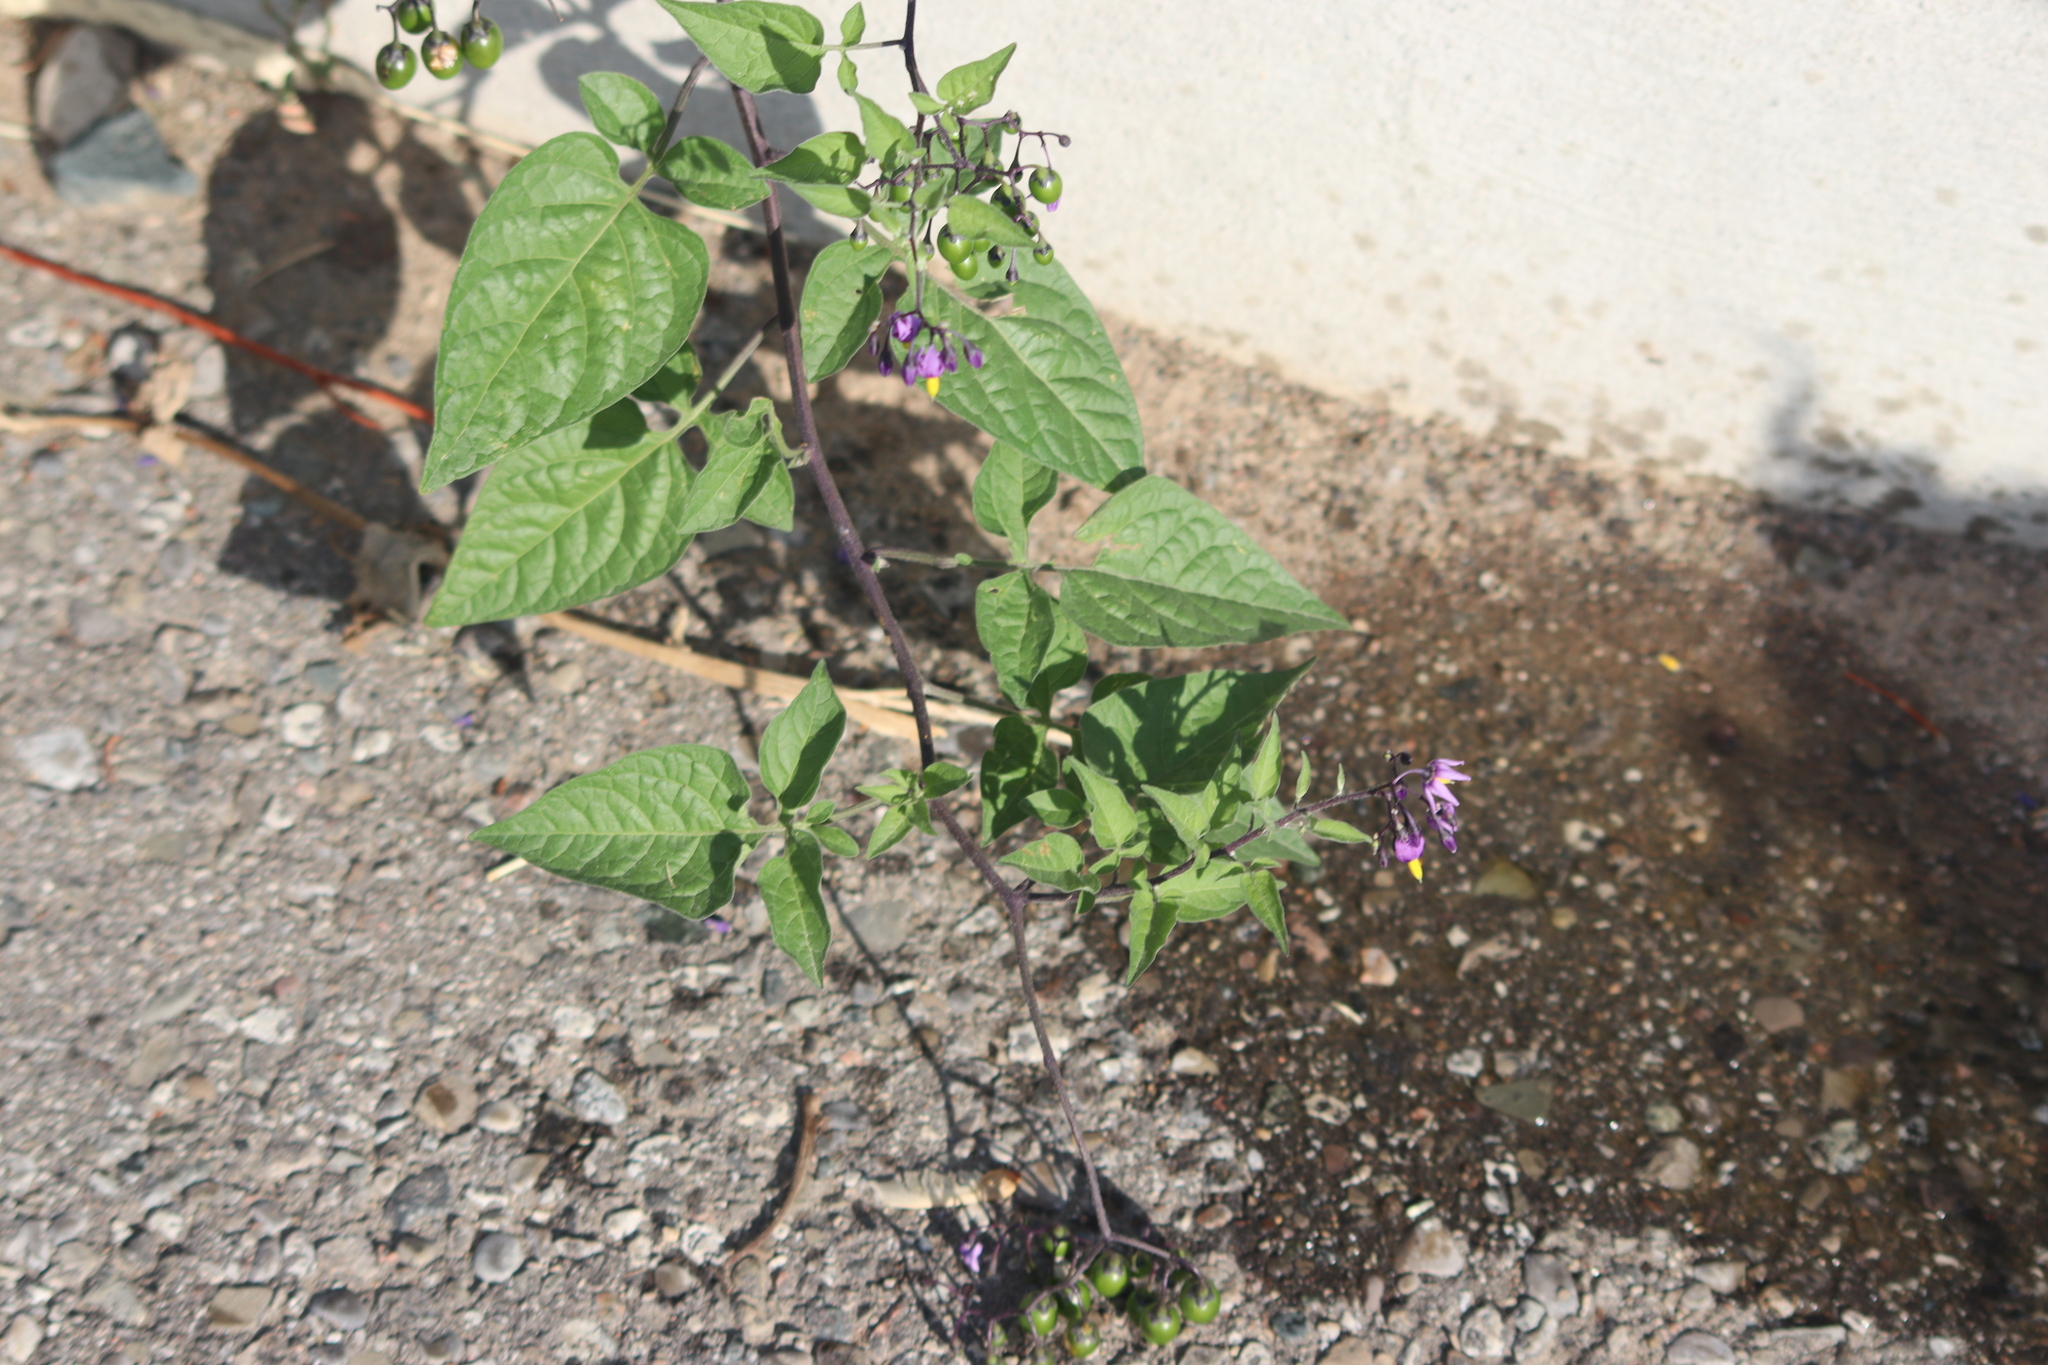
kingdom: Plantae
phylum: Tracheophyta
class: Magnoliopsida
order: Solanales
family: Solanaceae
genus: Solanum
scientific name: Solanum dulcamara
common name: Climbing nightshade
